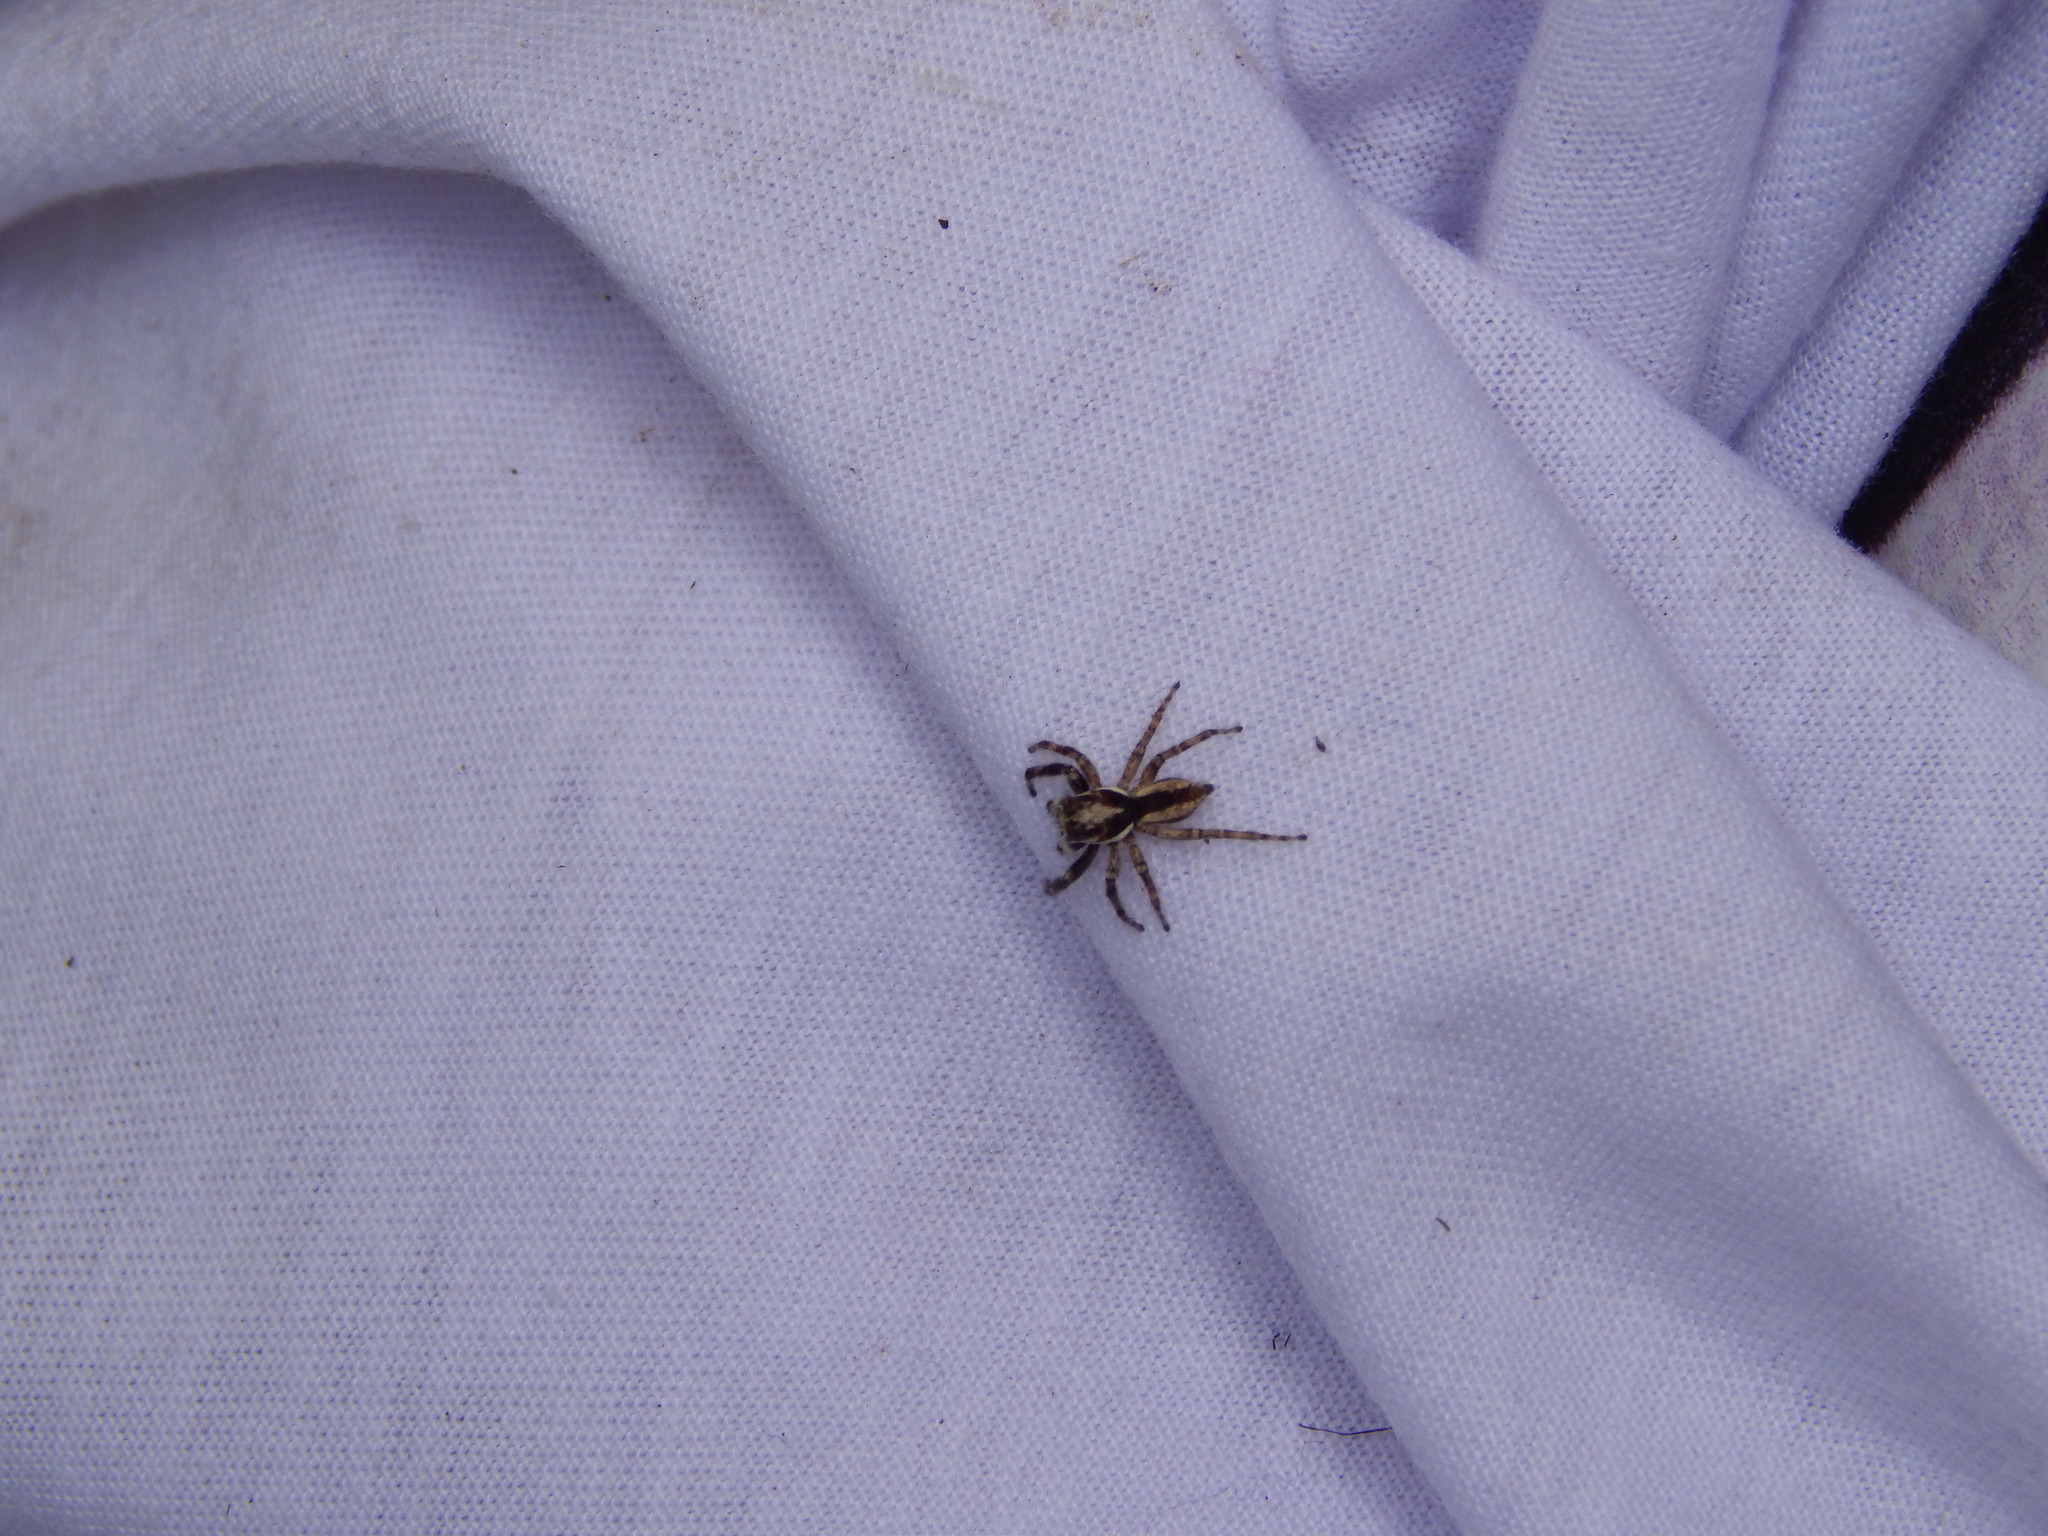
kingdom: Animalia
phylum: Arthropoda
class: Arachnida
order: Araneae
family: Salticidae
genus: Menemerus
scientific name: Menemerus bivittatus
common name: Gray wall jumper
